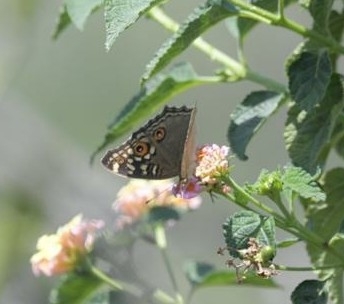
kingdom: Animalia
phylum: Arthropoda
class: Insecta
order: Lepidoptera
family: Nymphalidae
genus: Junonia
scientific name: Junonia lemonias
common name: Lemon pansy
